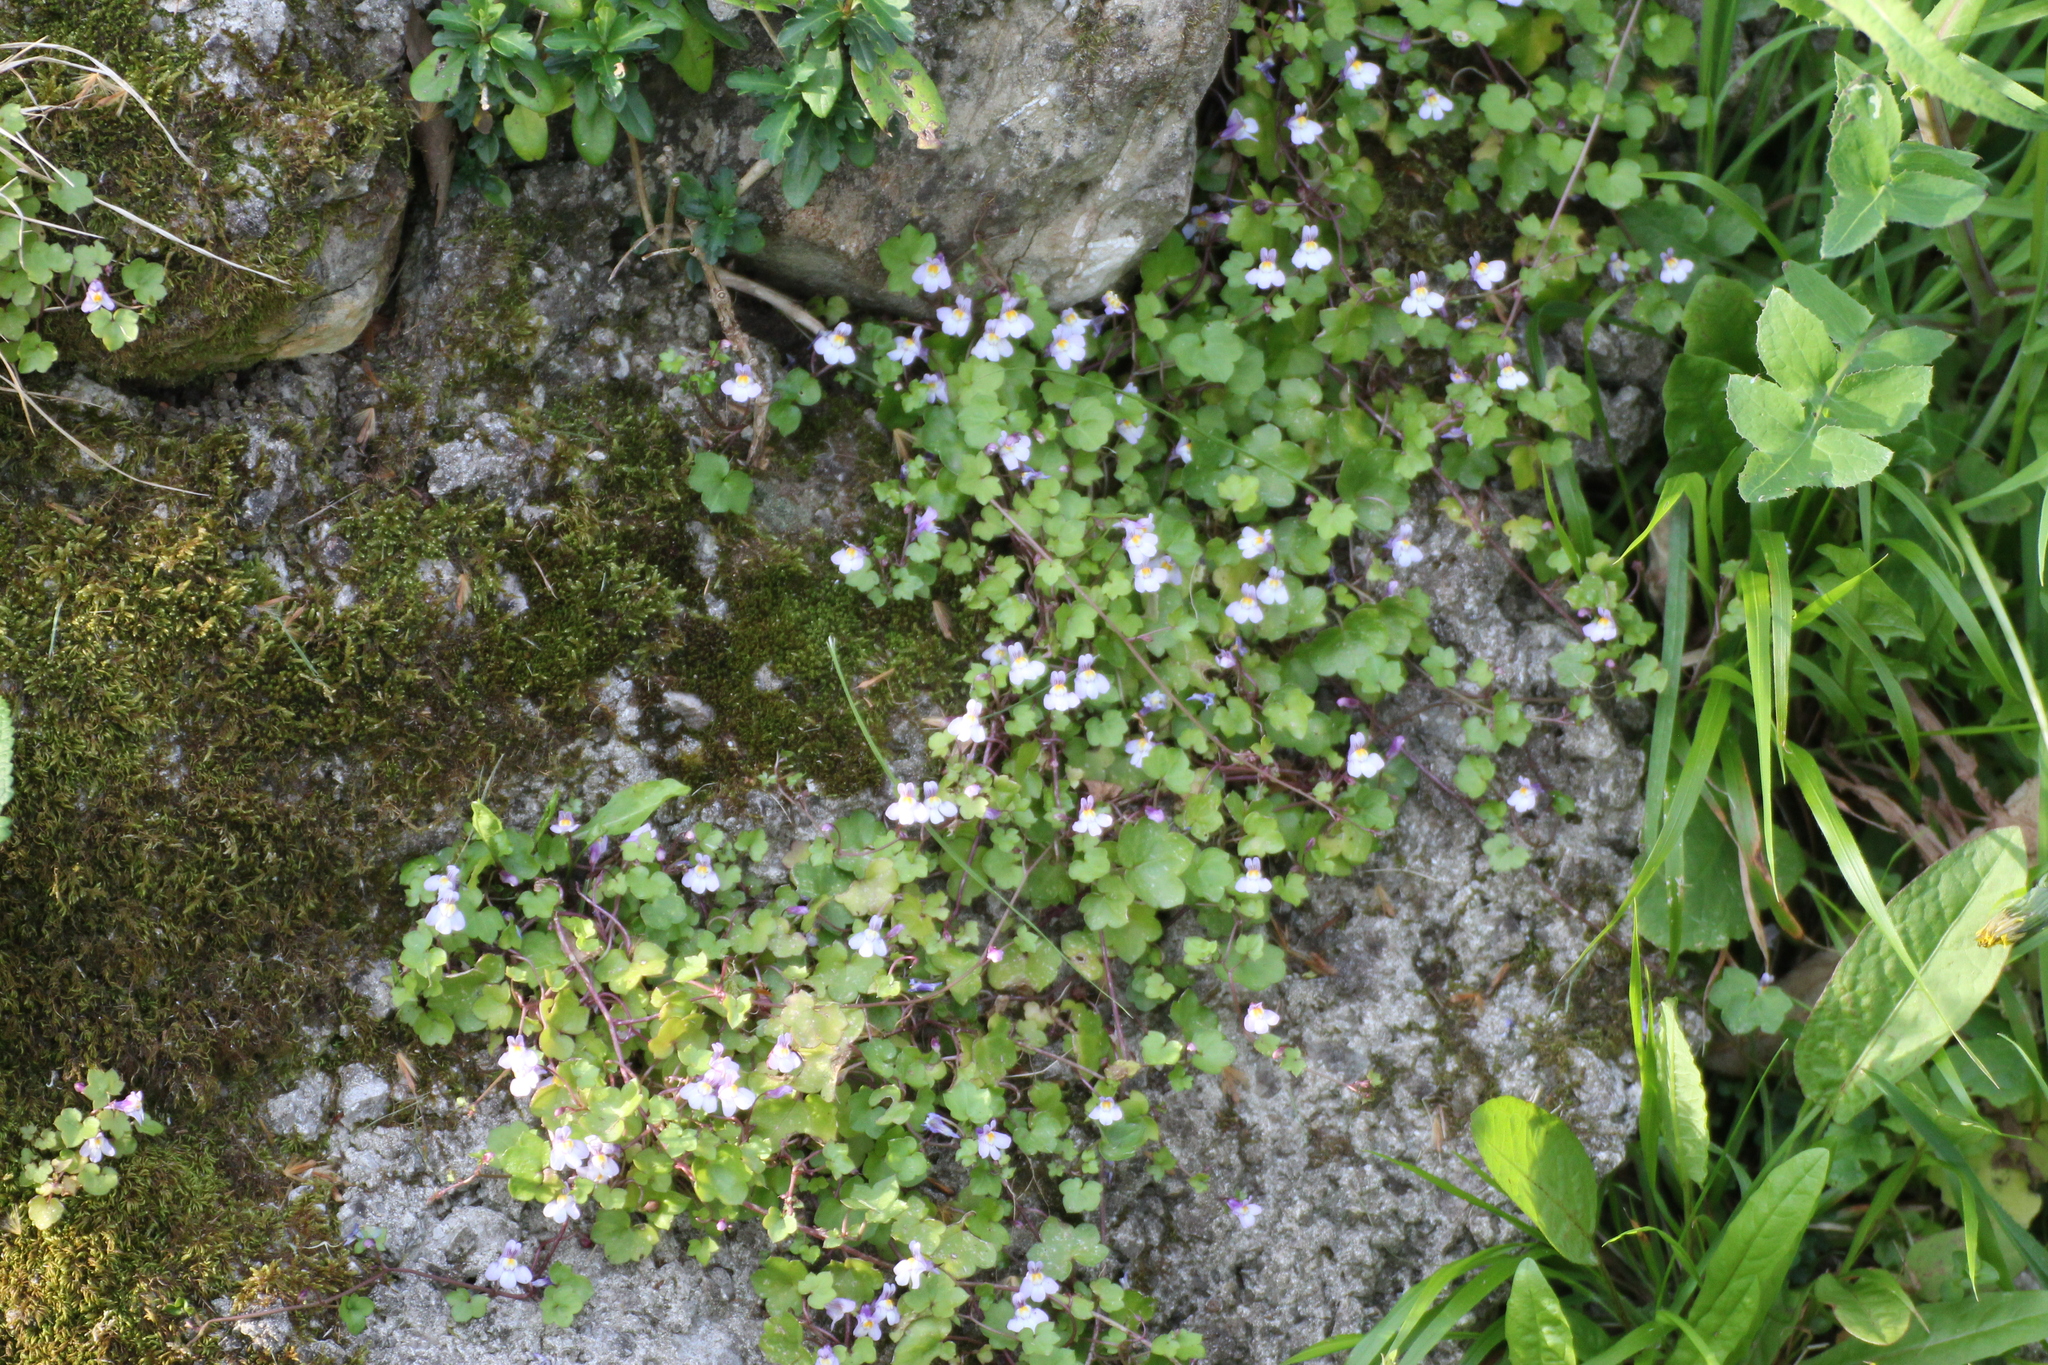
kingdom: Plantae
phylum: Tracheophyta
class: Magnoliopsida
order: Lamiales
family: Plantaginaceae
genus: Cymbalaria
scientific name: Cymbalaria muralis
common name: Ivy-leaved toadflax
